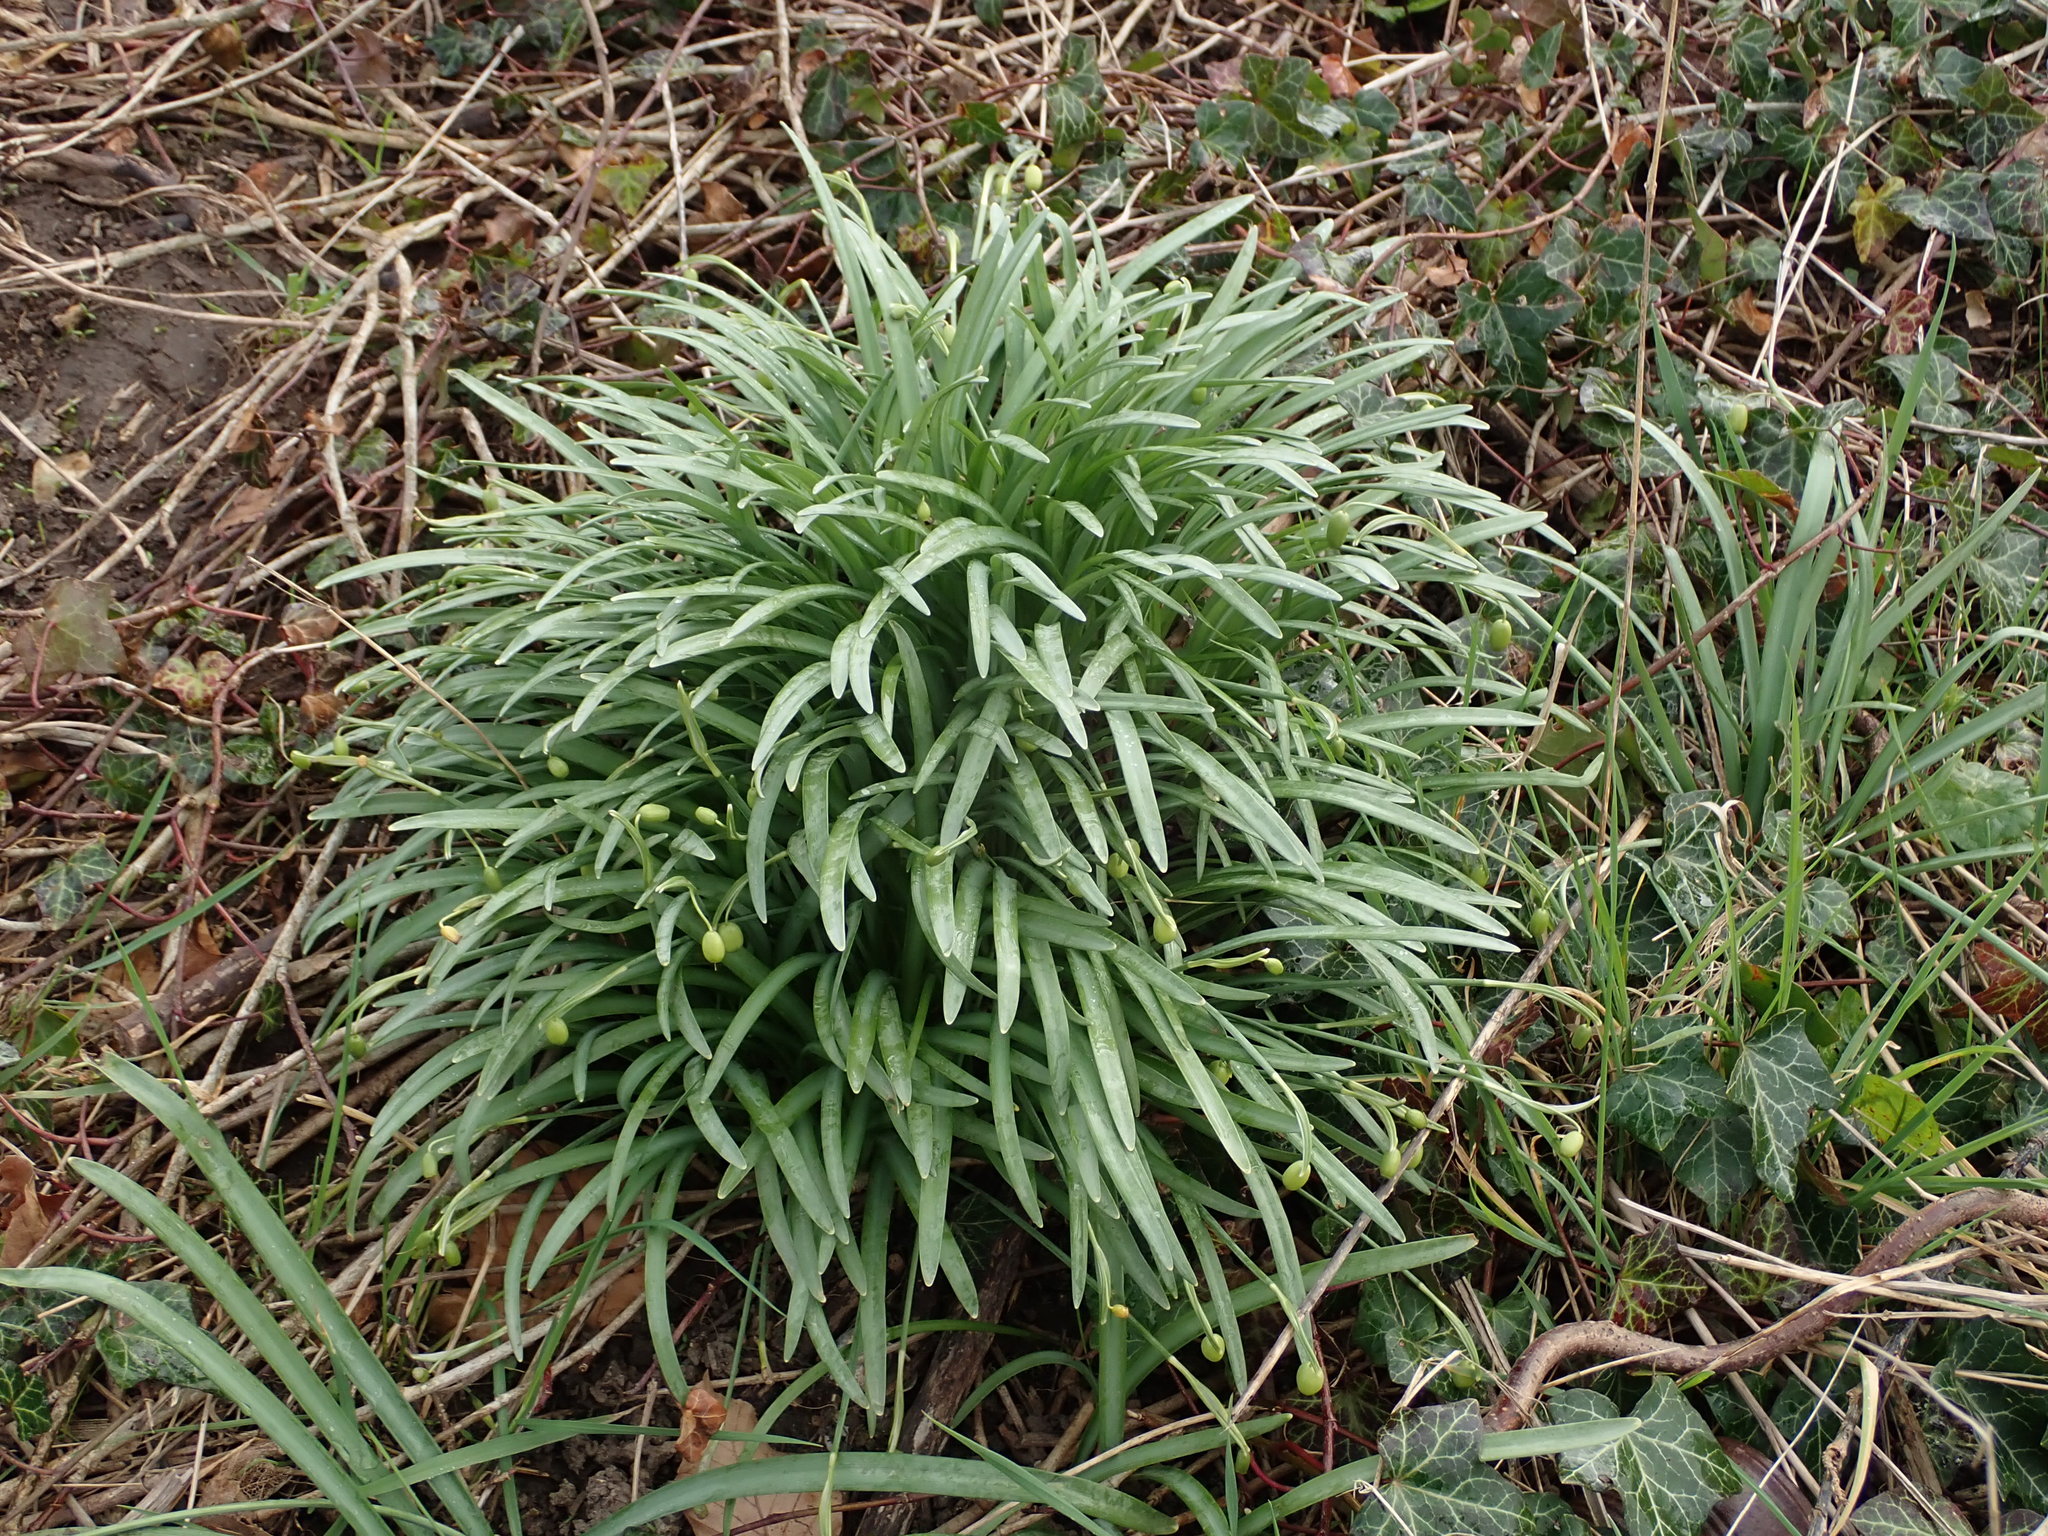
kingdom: Plantae
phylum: Tracheophyta
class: Liliopsida
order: Asparagales
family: Amaryllidaceae
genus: Galanthus
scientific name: Galanthus nivalis
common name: Snowdrop
